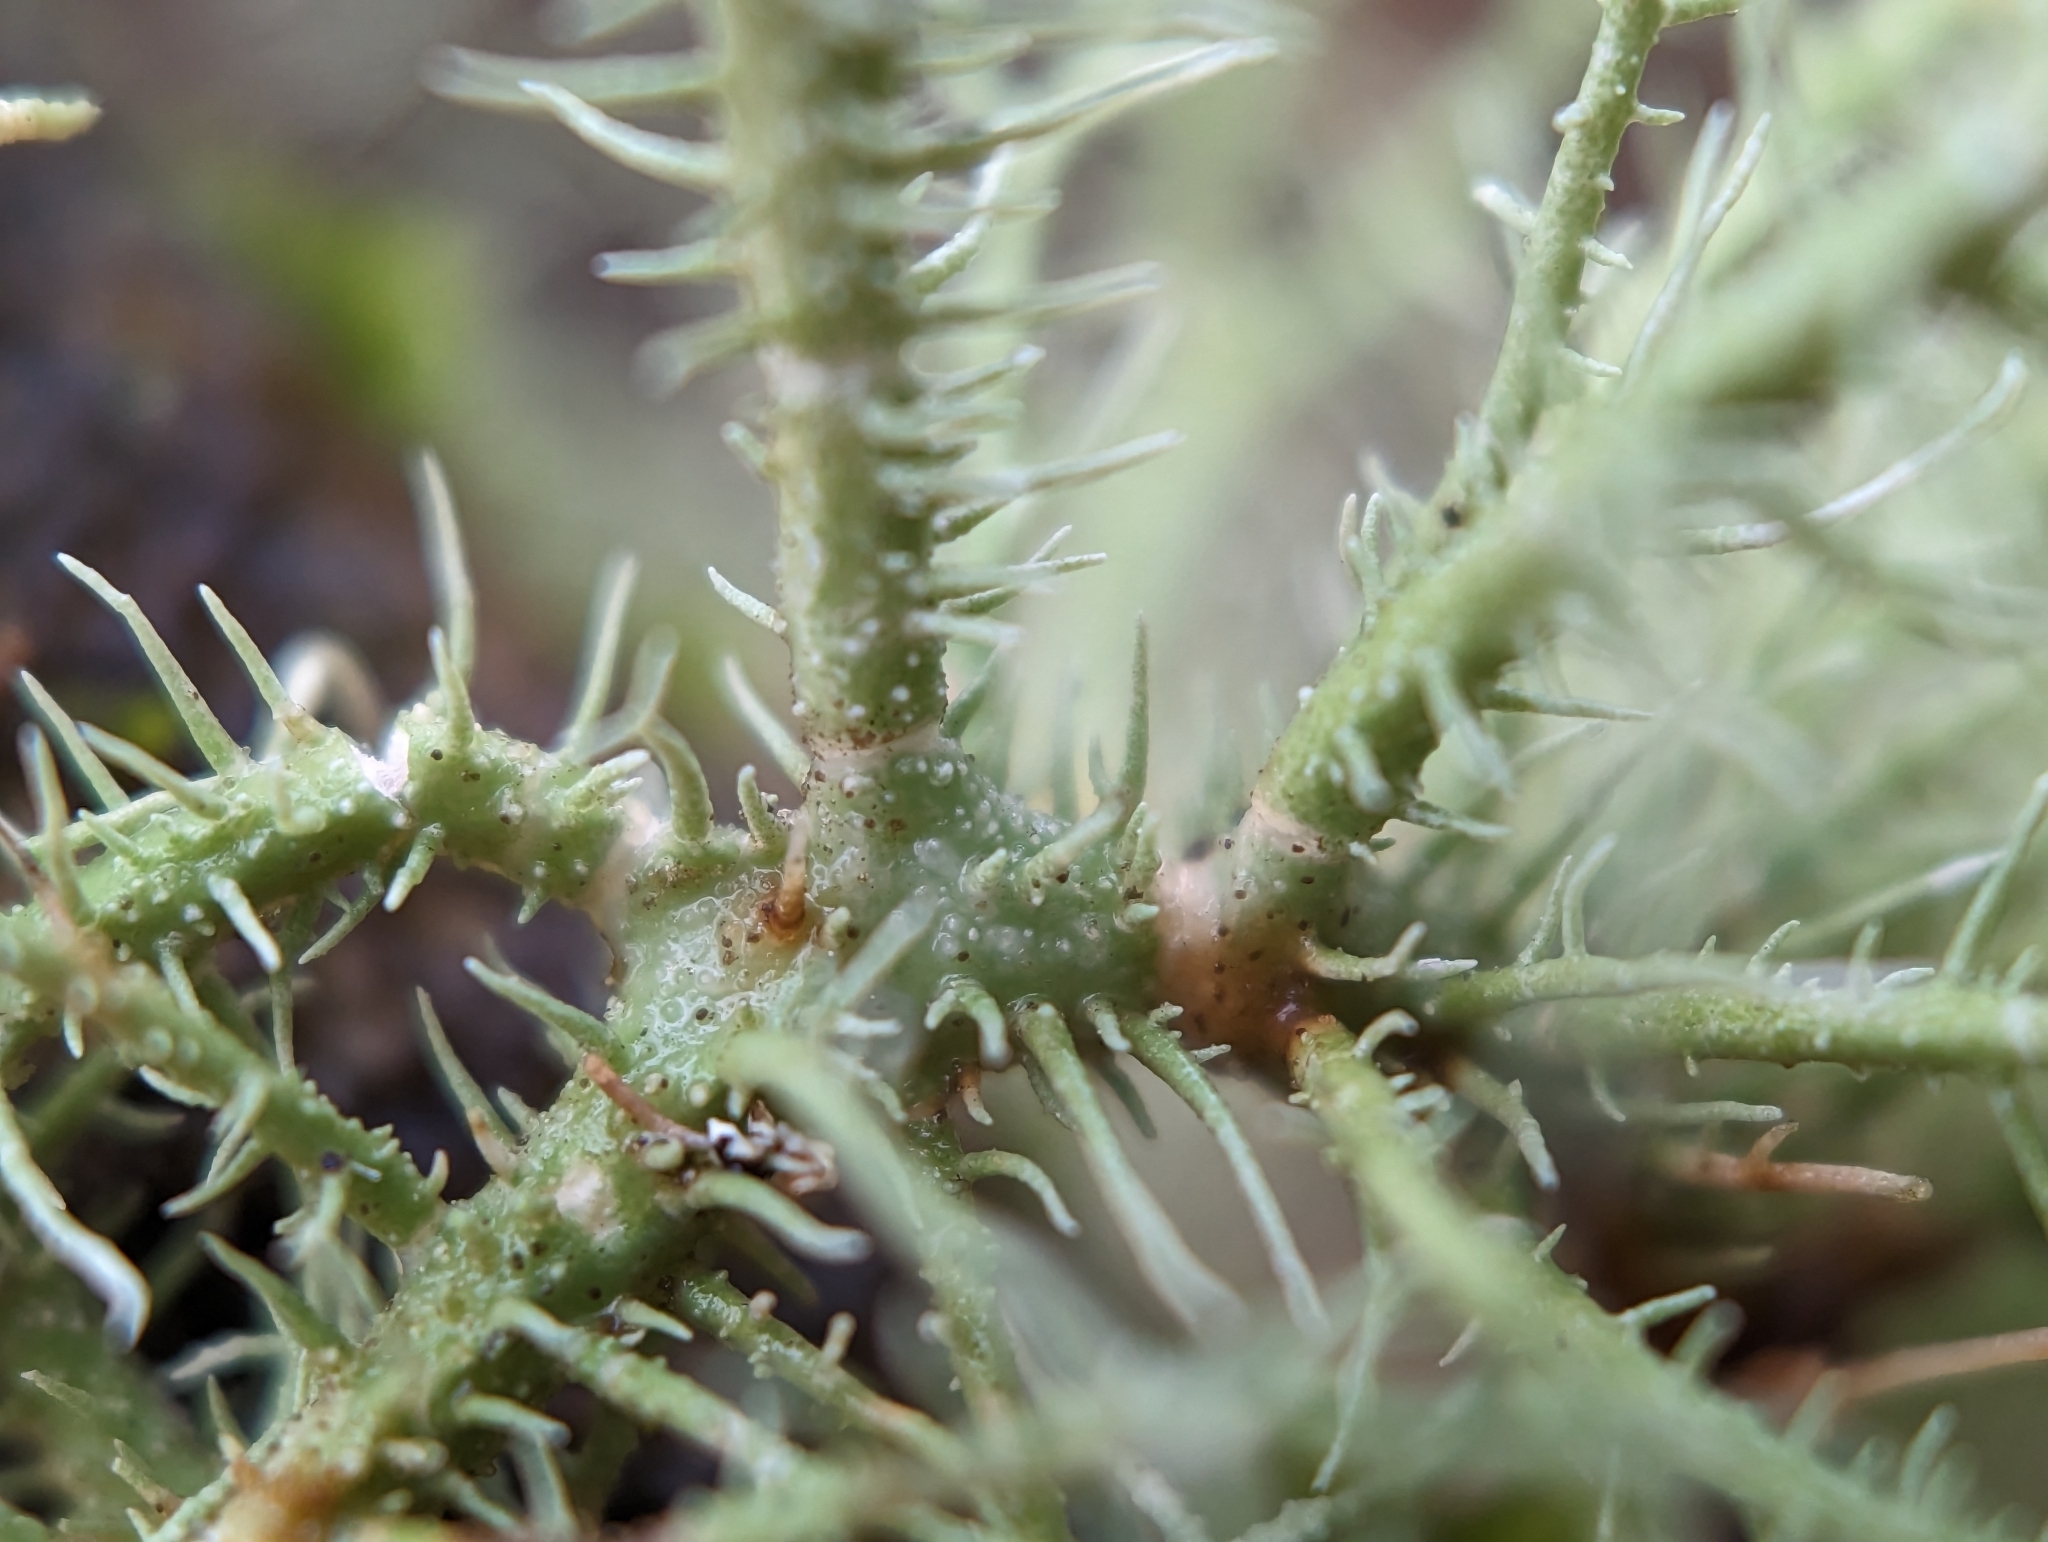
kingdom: Fungi
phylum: Ascomycota
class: Lecanoromycetes
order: Lecanorales
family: Parmeliaceae
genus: Usnea
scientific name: Usnea strigosa
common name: Bushy beard lichen
